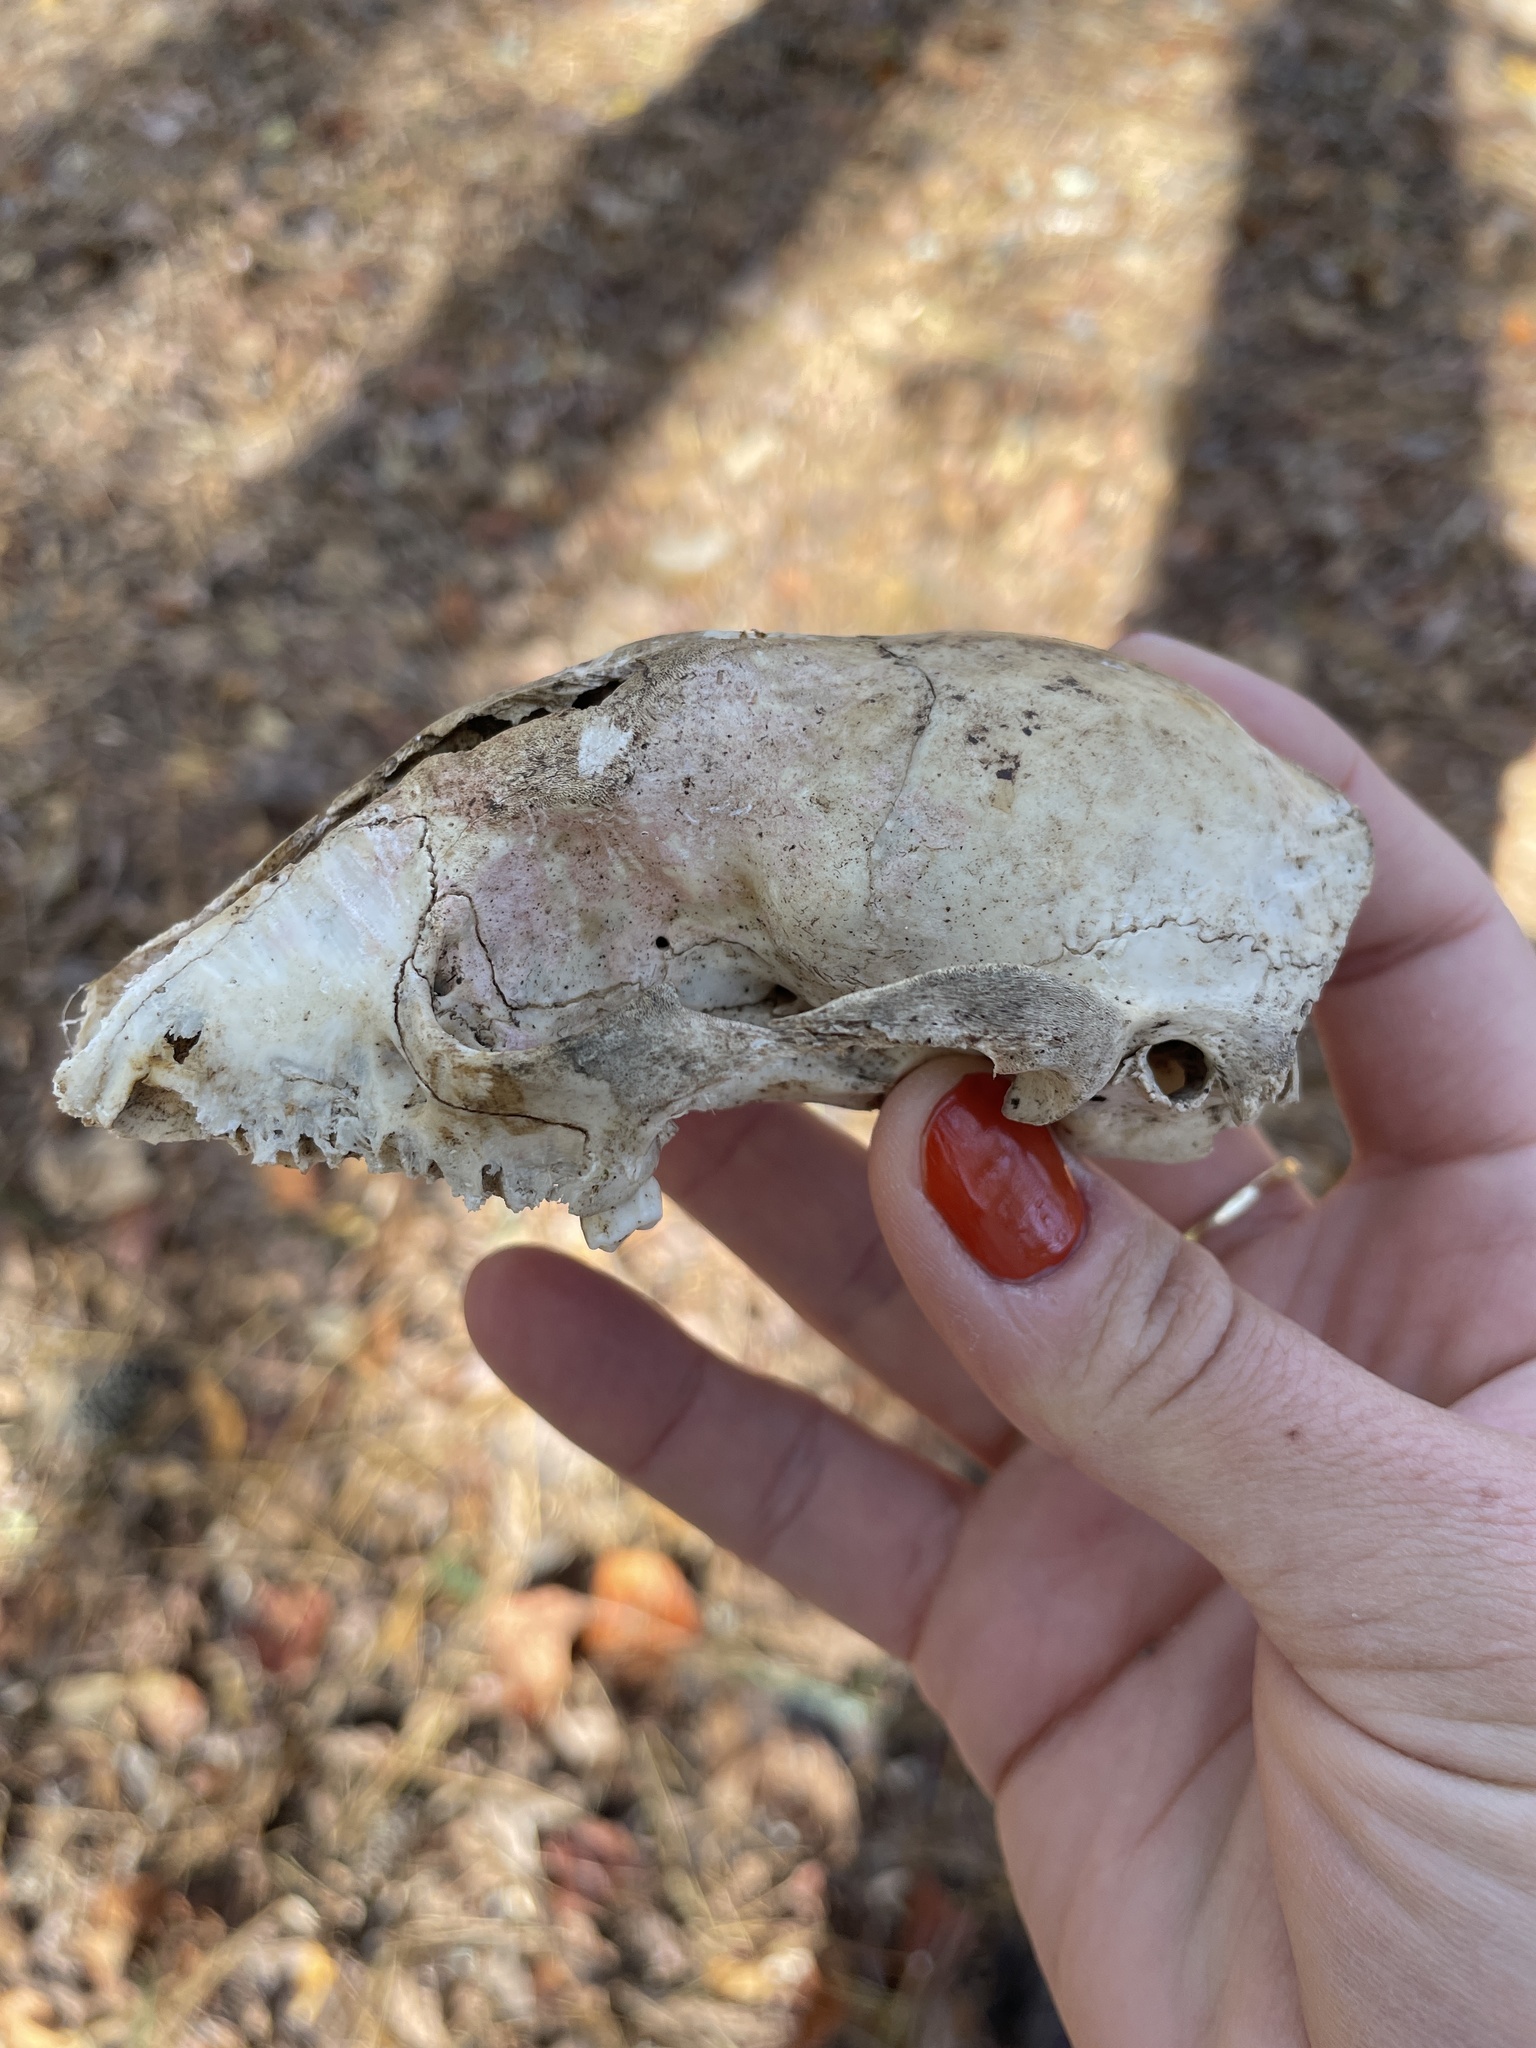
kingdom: Animalia
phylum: Chordata
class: Mammalia
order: Carnivora
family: Procyonidae
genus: Procyon
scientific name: Procyon lotor
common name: Raccoon
